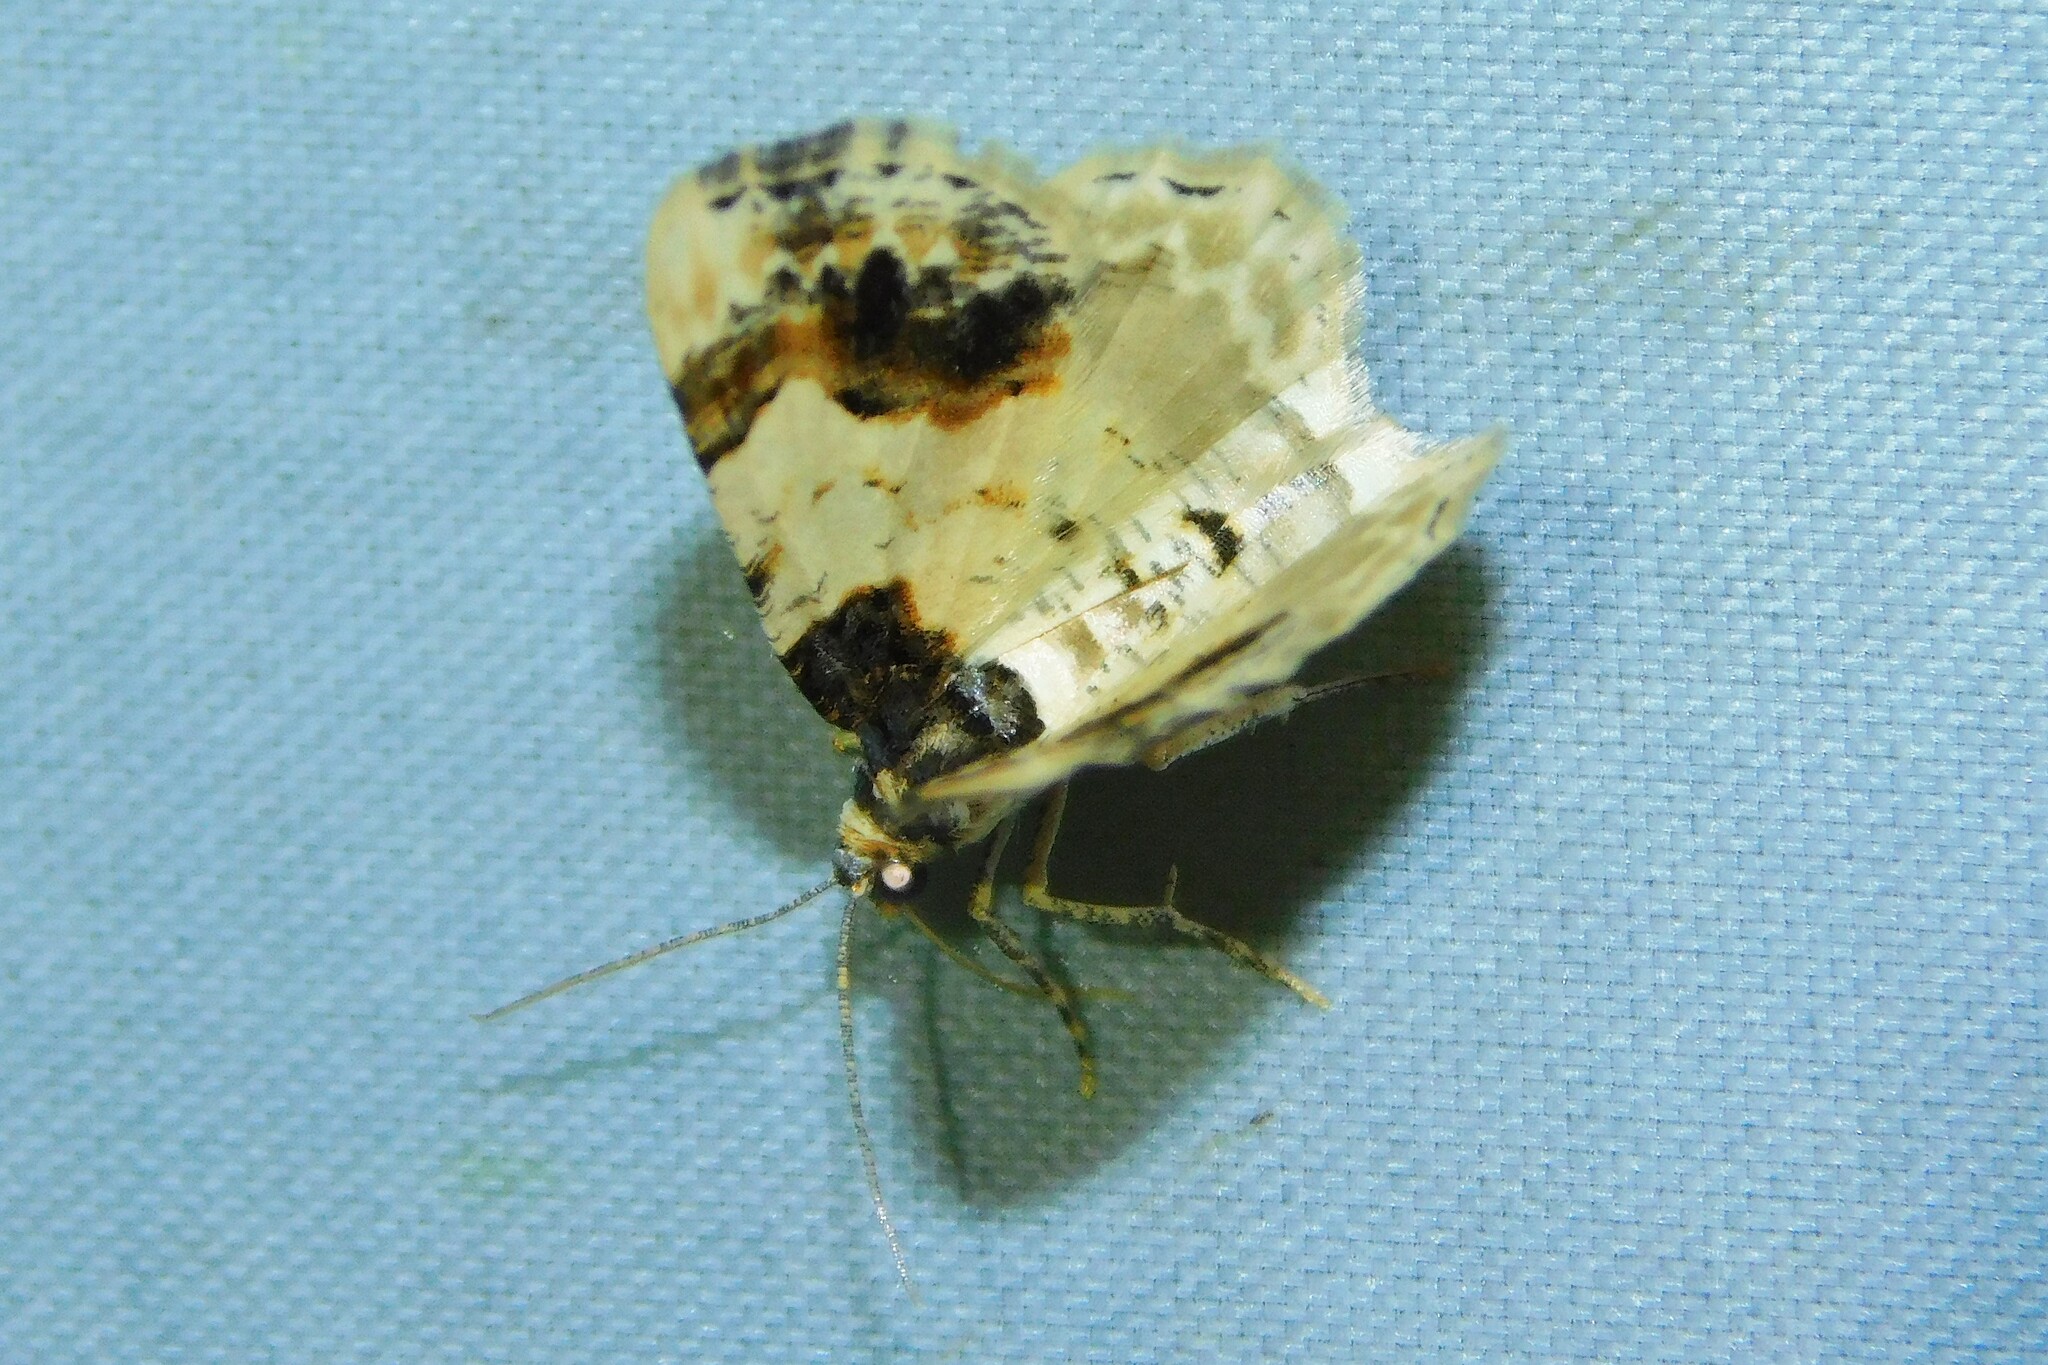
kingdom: Animalia
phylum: Arthropoda
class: Insecta
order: Lepidoptera
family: Geometridae
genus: Ligdia
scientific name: Ligdia adustata
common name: Scorched carpet
